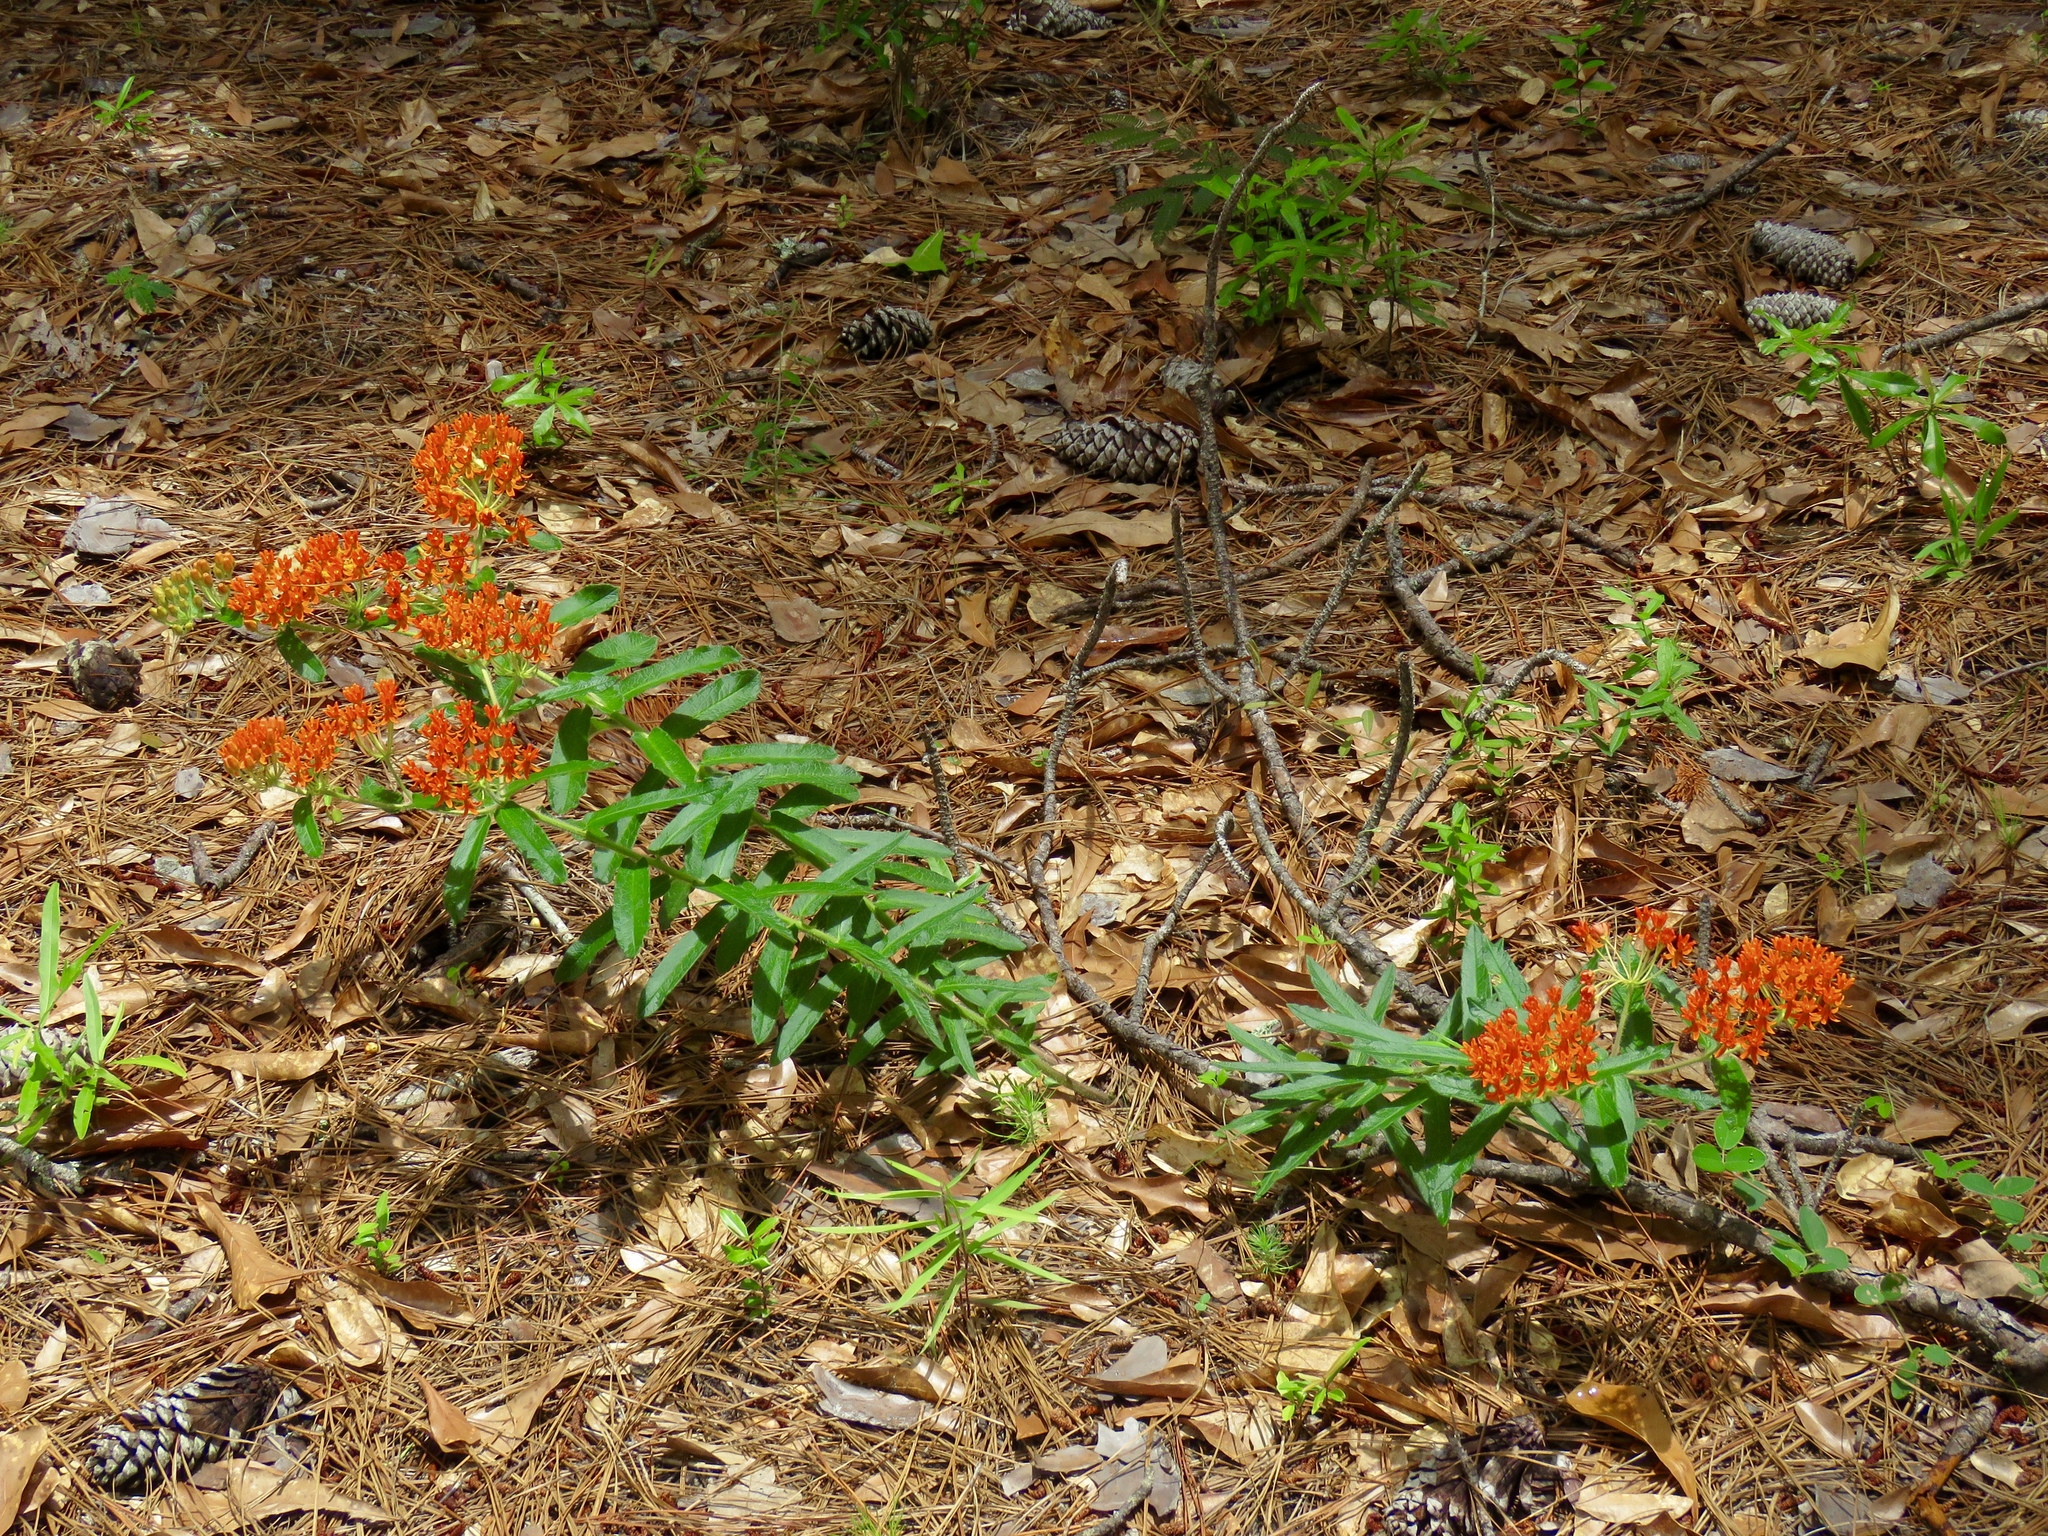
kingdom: Plantae
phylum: Tracheophyta
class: Magnoliopsida
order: Gentianales
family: Apocynaceae
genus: Asclepias
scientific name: Asclepias tuberosa
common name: Butterfly milkweed
